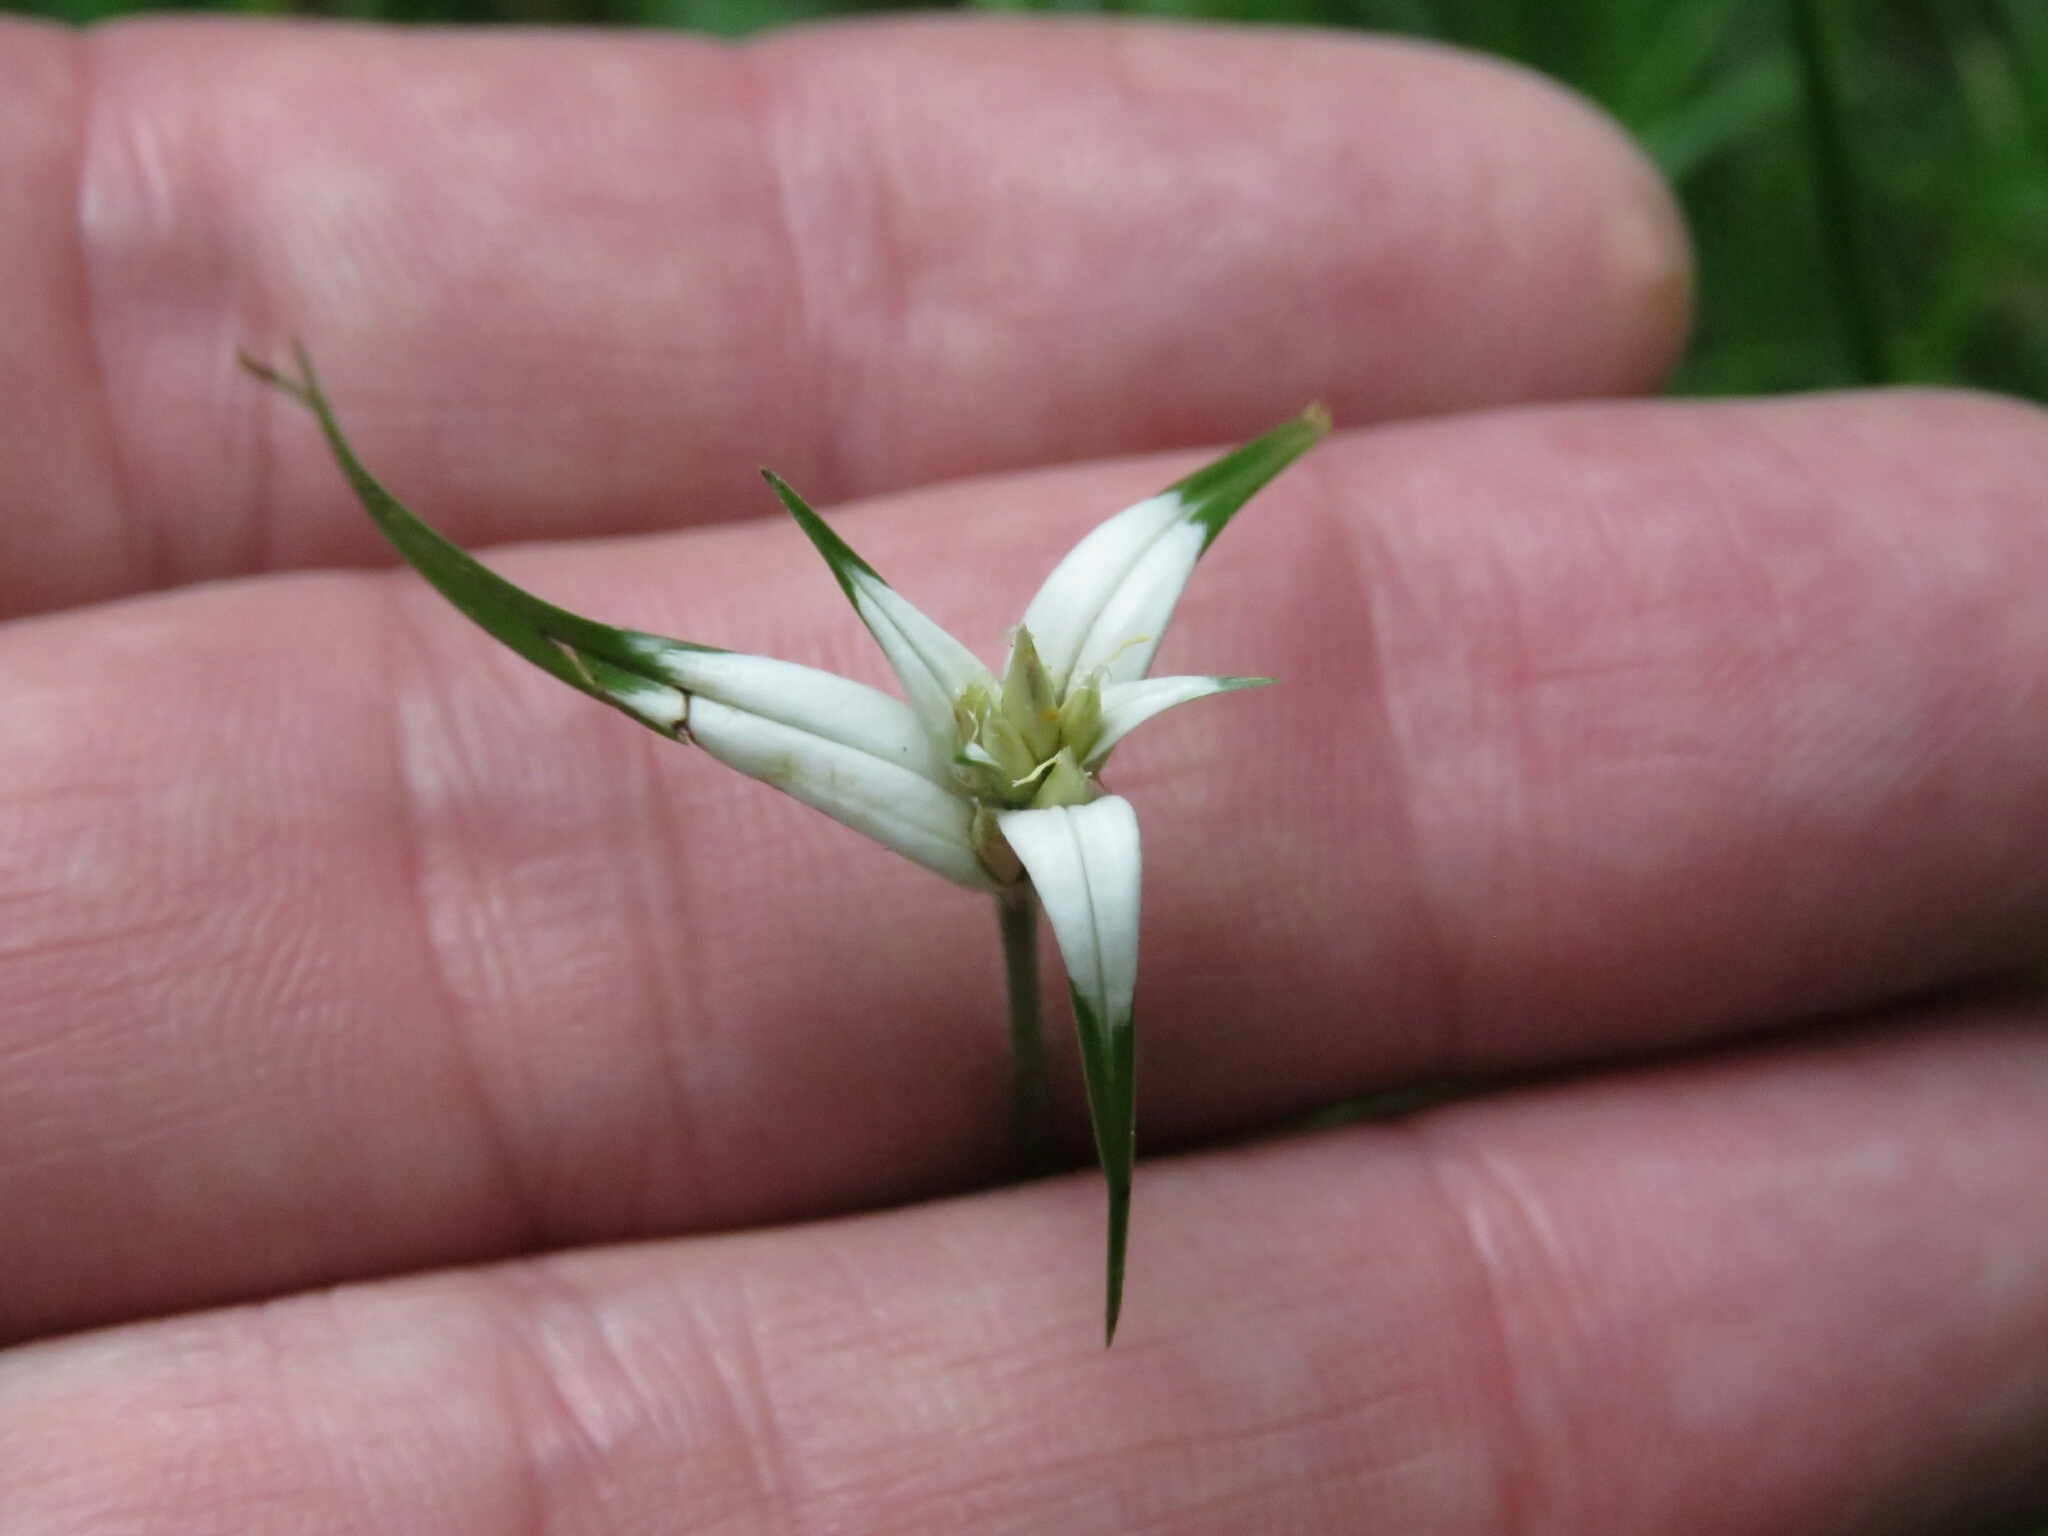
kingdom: Plantae
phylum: Tracheophyta
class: Liliopsida
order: Poales
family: Cyperaceae
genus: Rhynchospora
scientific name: Rhynchospora blepharophora
